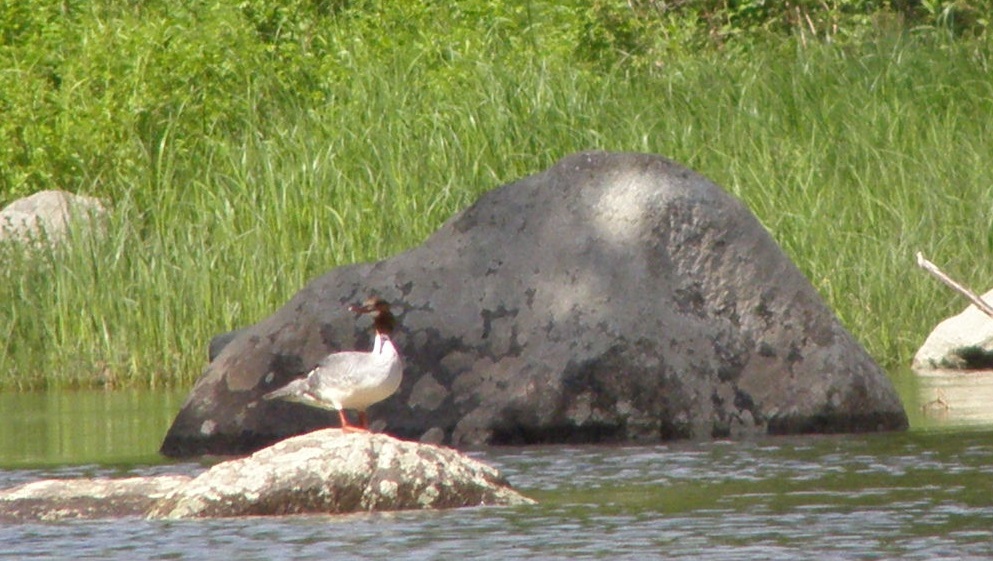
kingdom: Animalia
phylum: Chordata
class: Aves
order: Anseriformes
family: Anatidae
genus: Mergus
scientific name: Mergus merganser
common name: Common merganser
